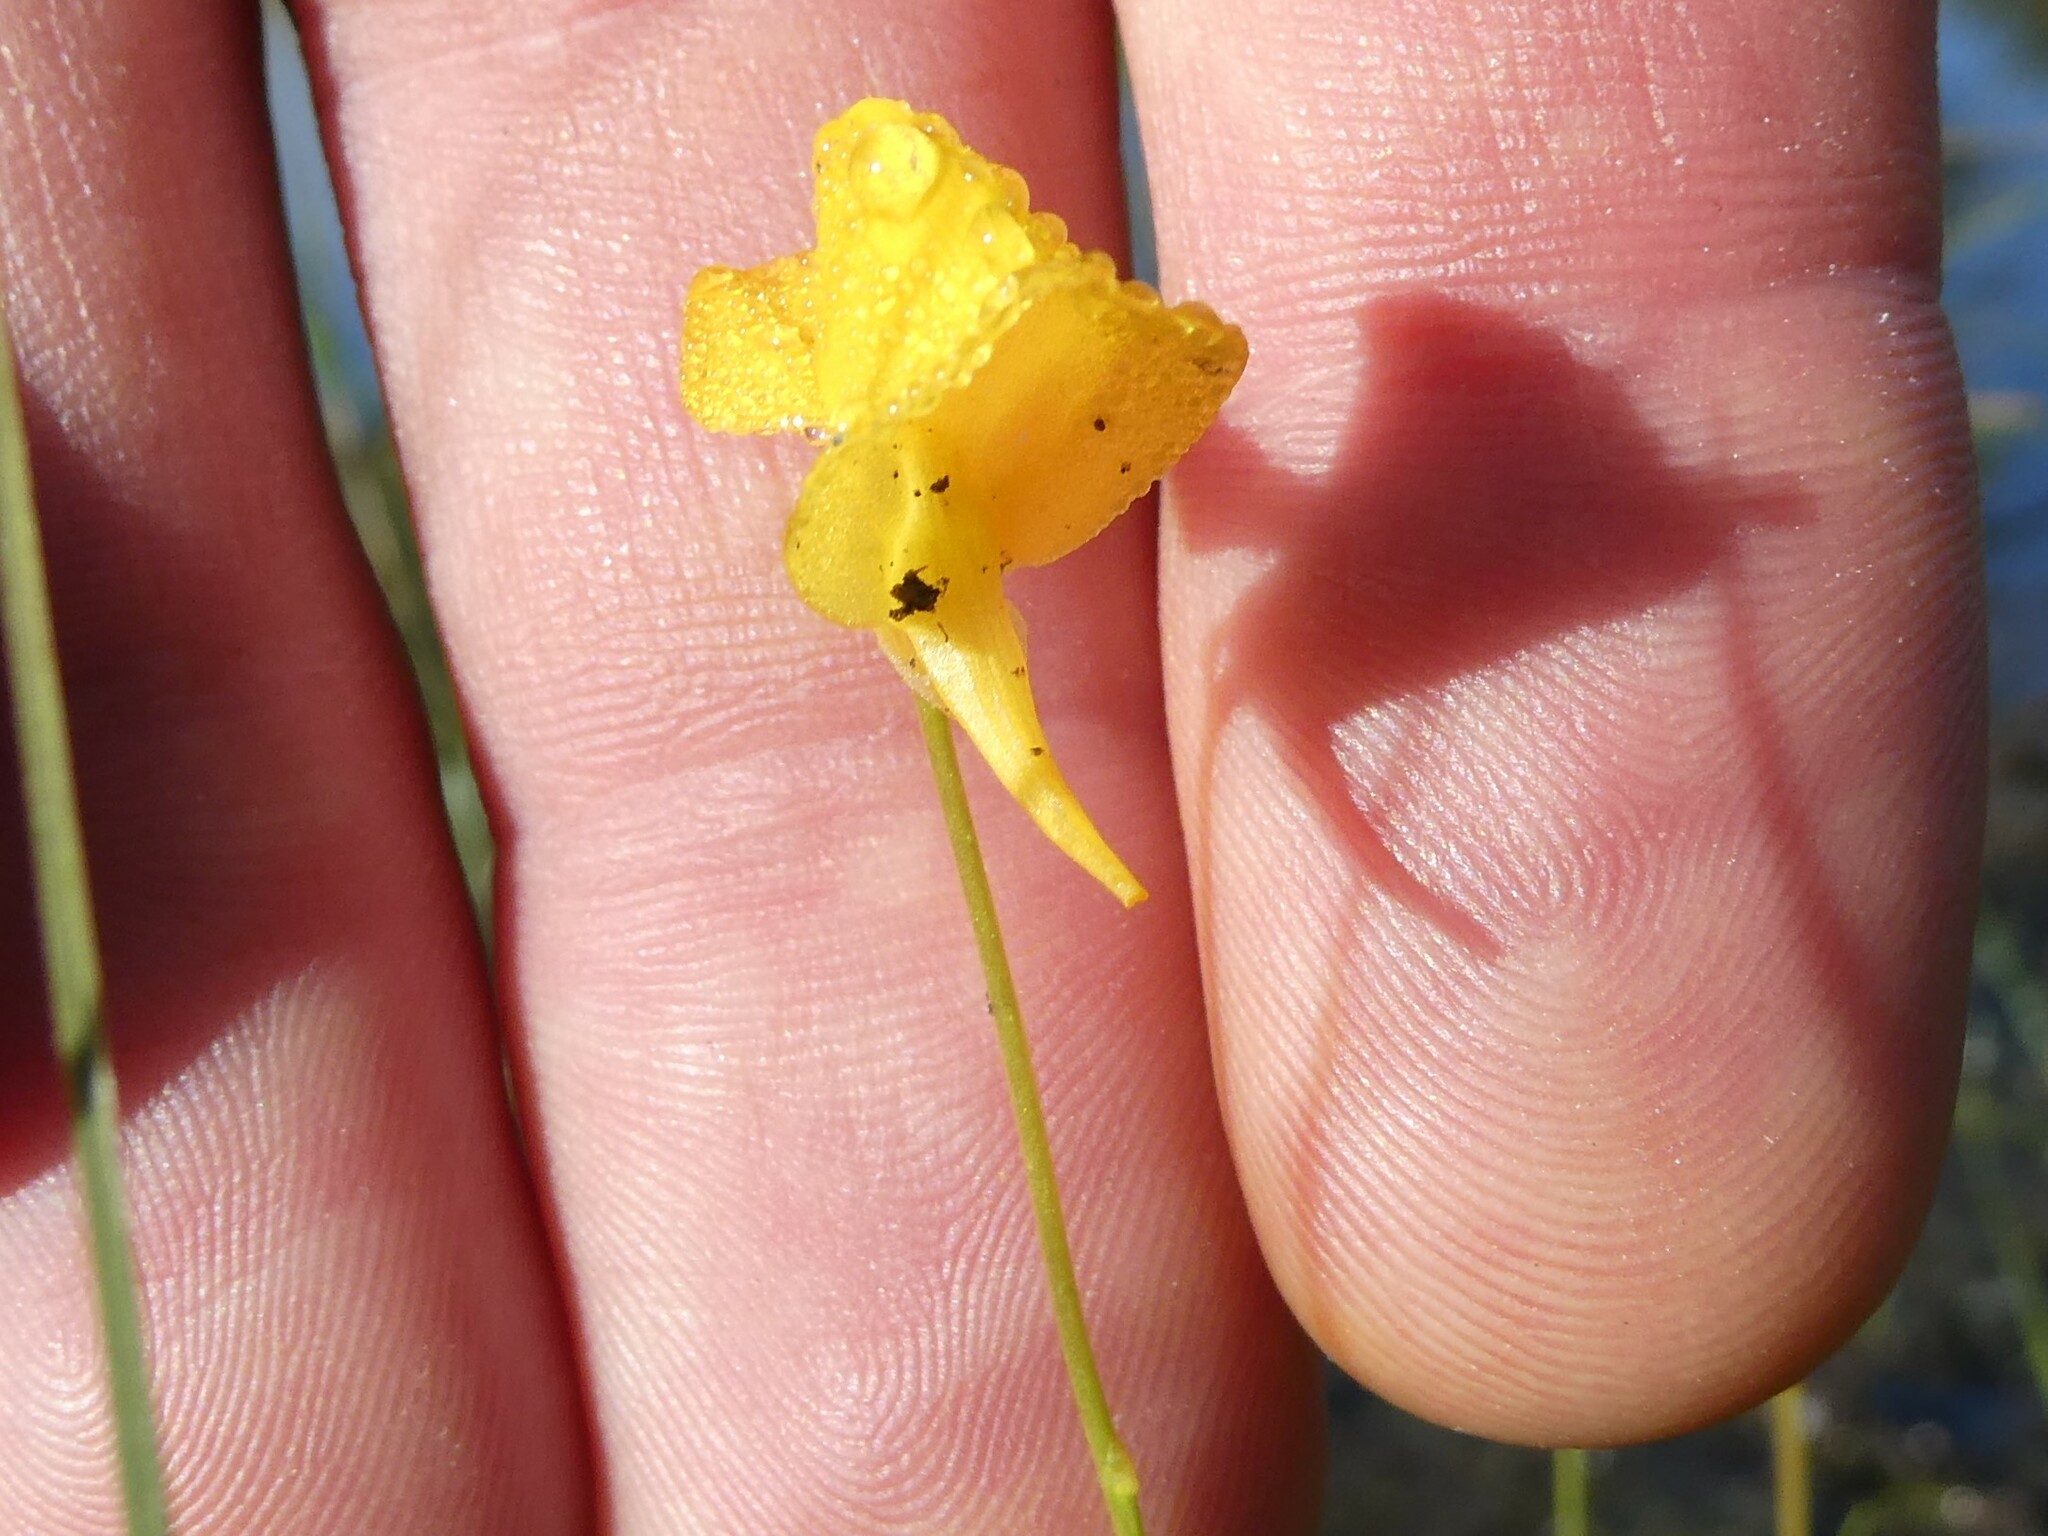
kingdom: Plantae
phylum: Tracheophyta
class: Magnoliopsida
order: Lamiales
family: Lentibulariaceae
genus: Utricularia
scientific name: Utricularia cornuta
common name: Horned bladderwort
